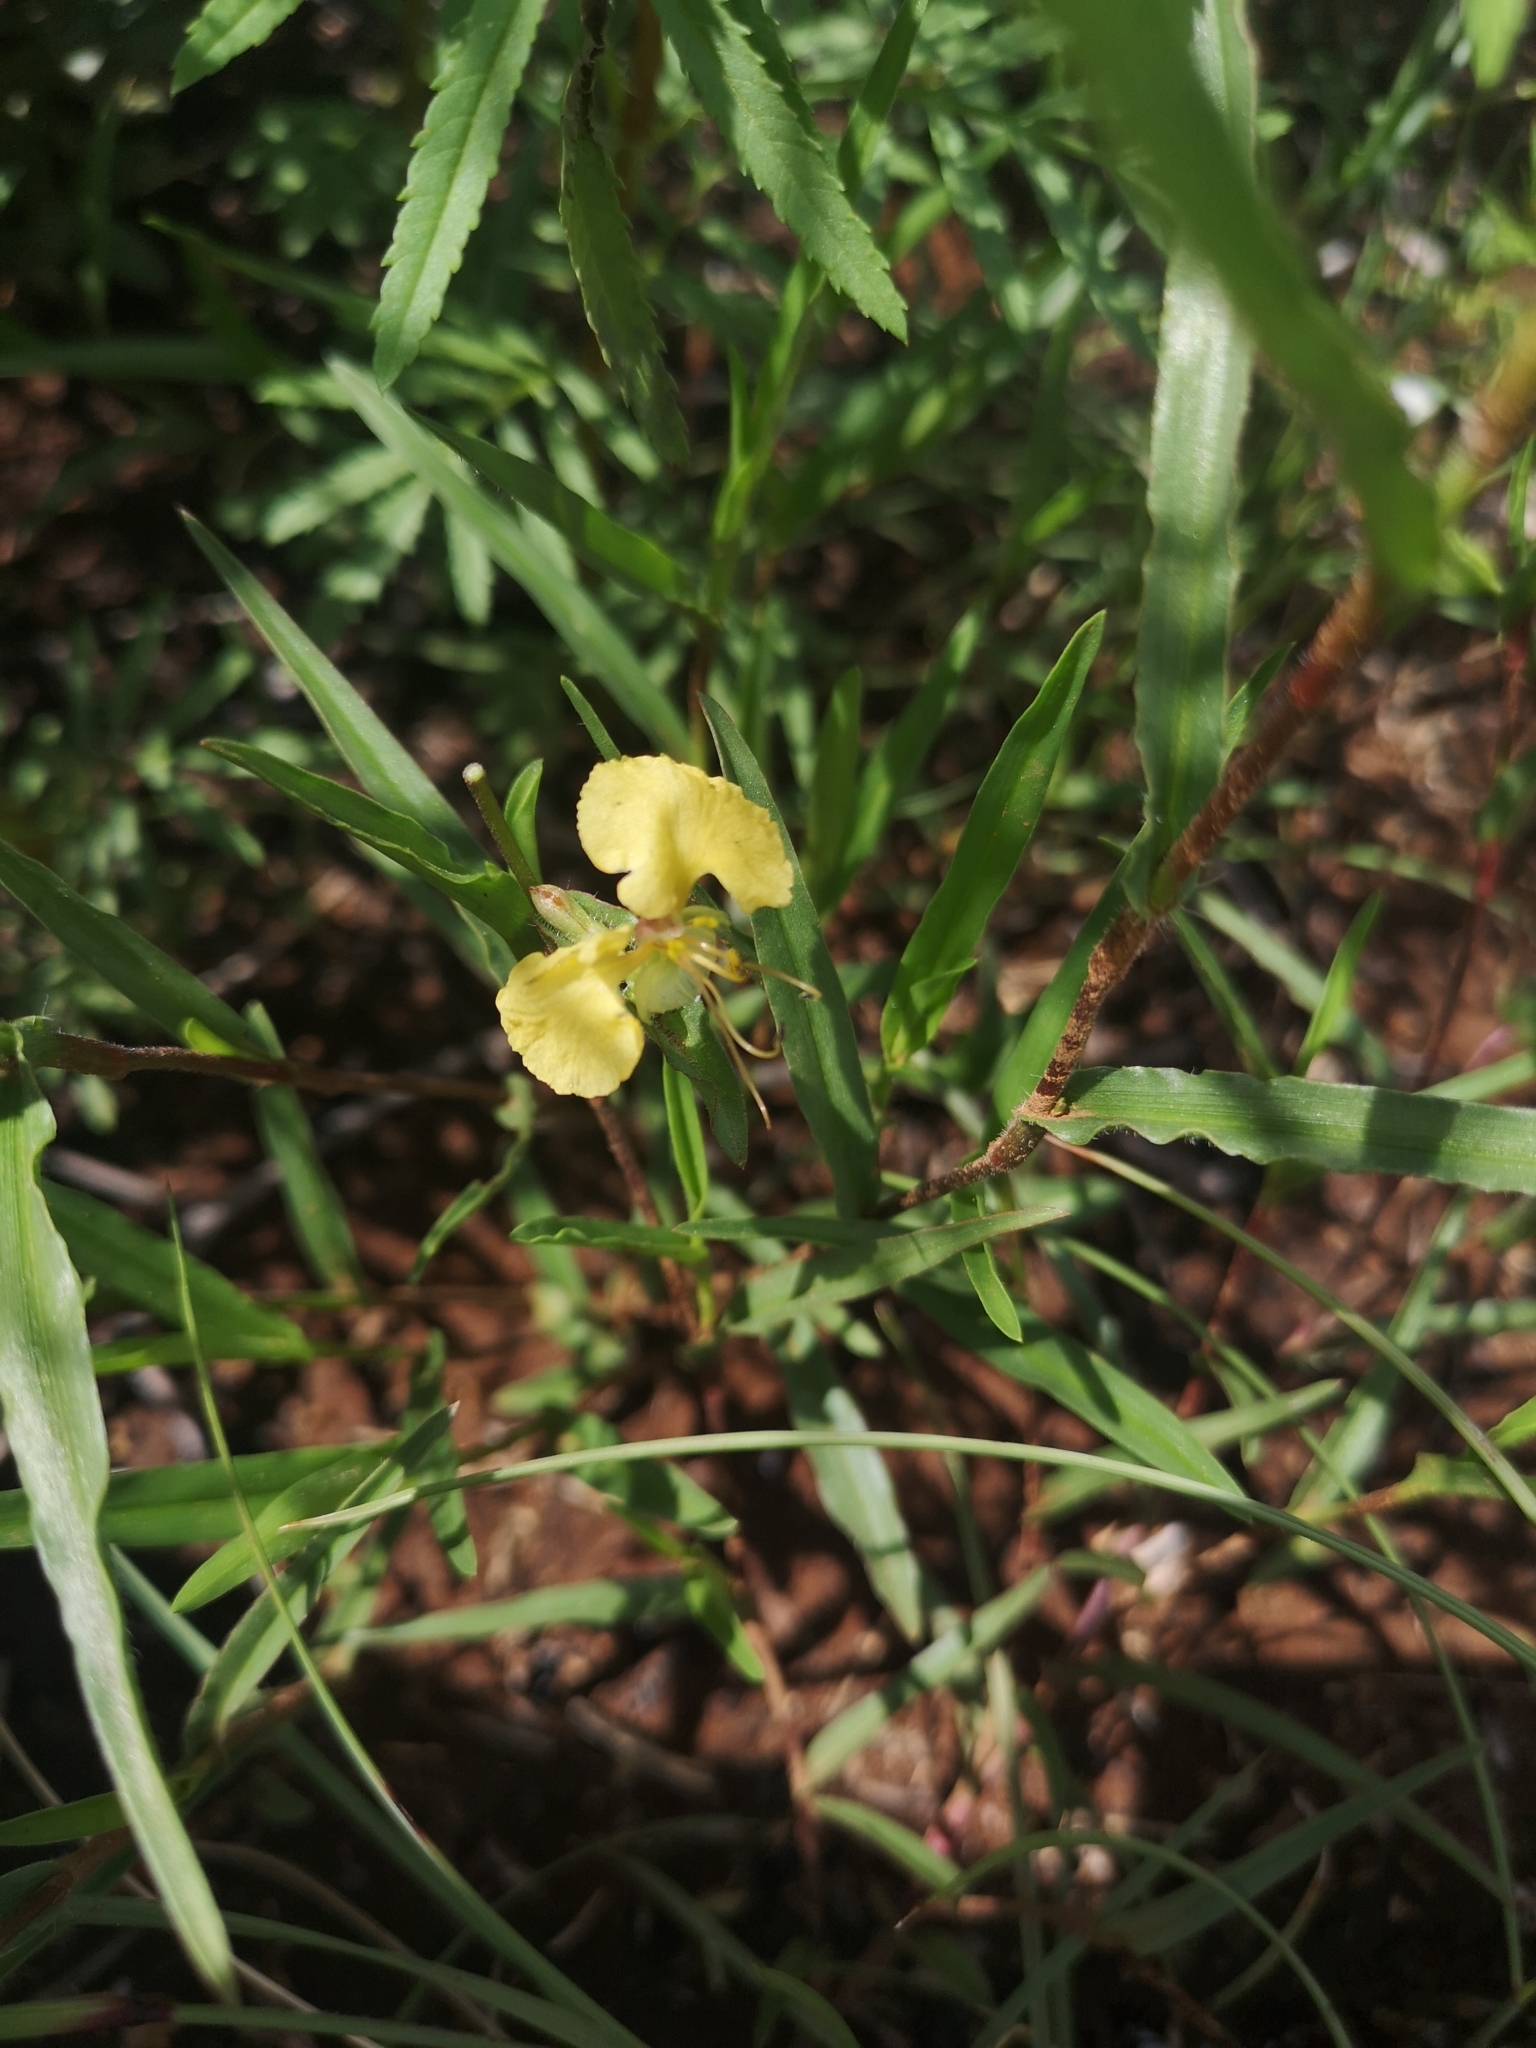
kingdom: Plantae
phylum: Tracheophyta
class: Liliopsida
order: Commelinales
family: Commelinaceae
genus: Commelina
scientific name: Commelina africana
